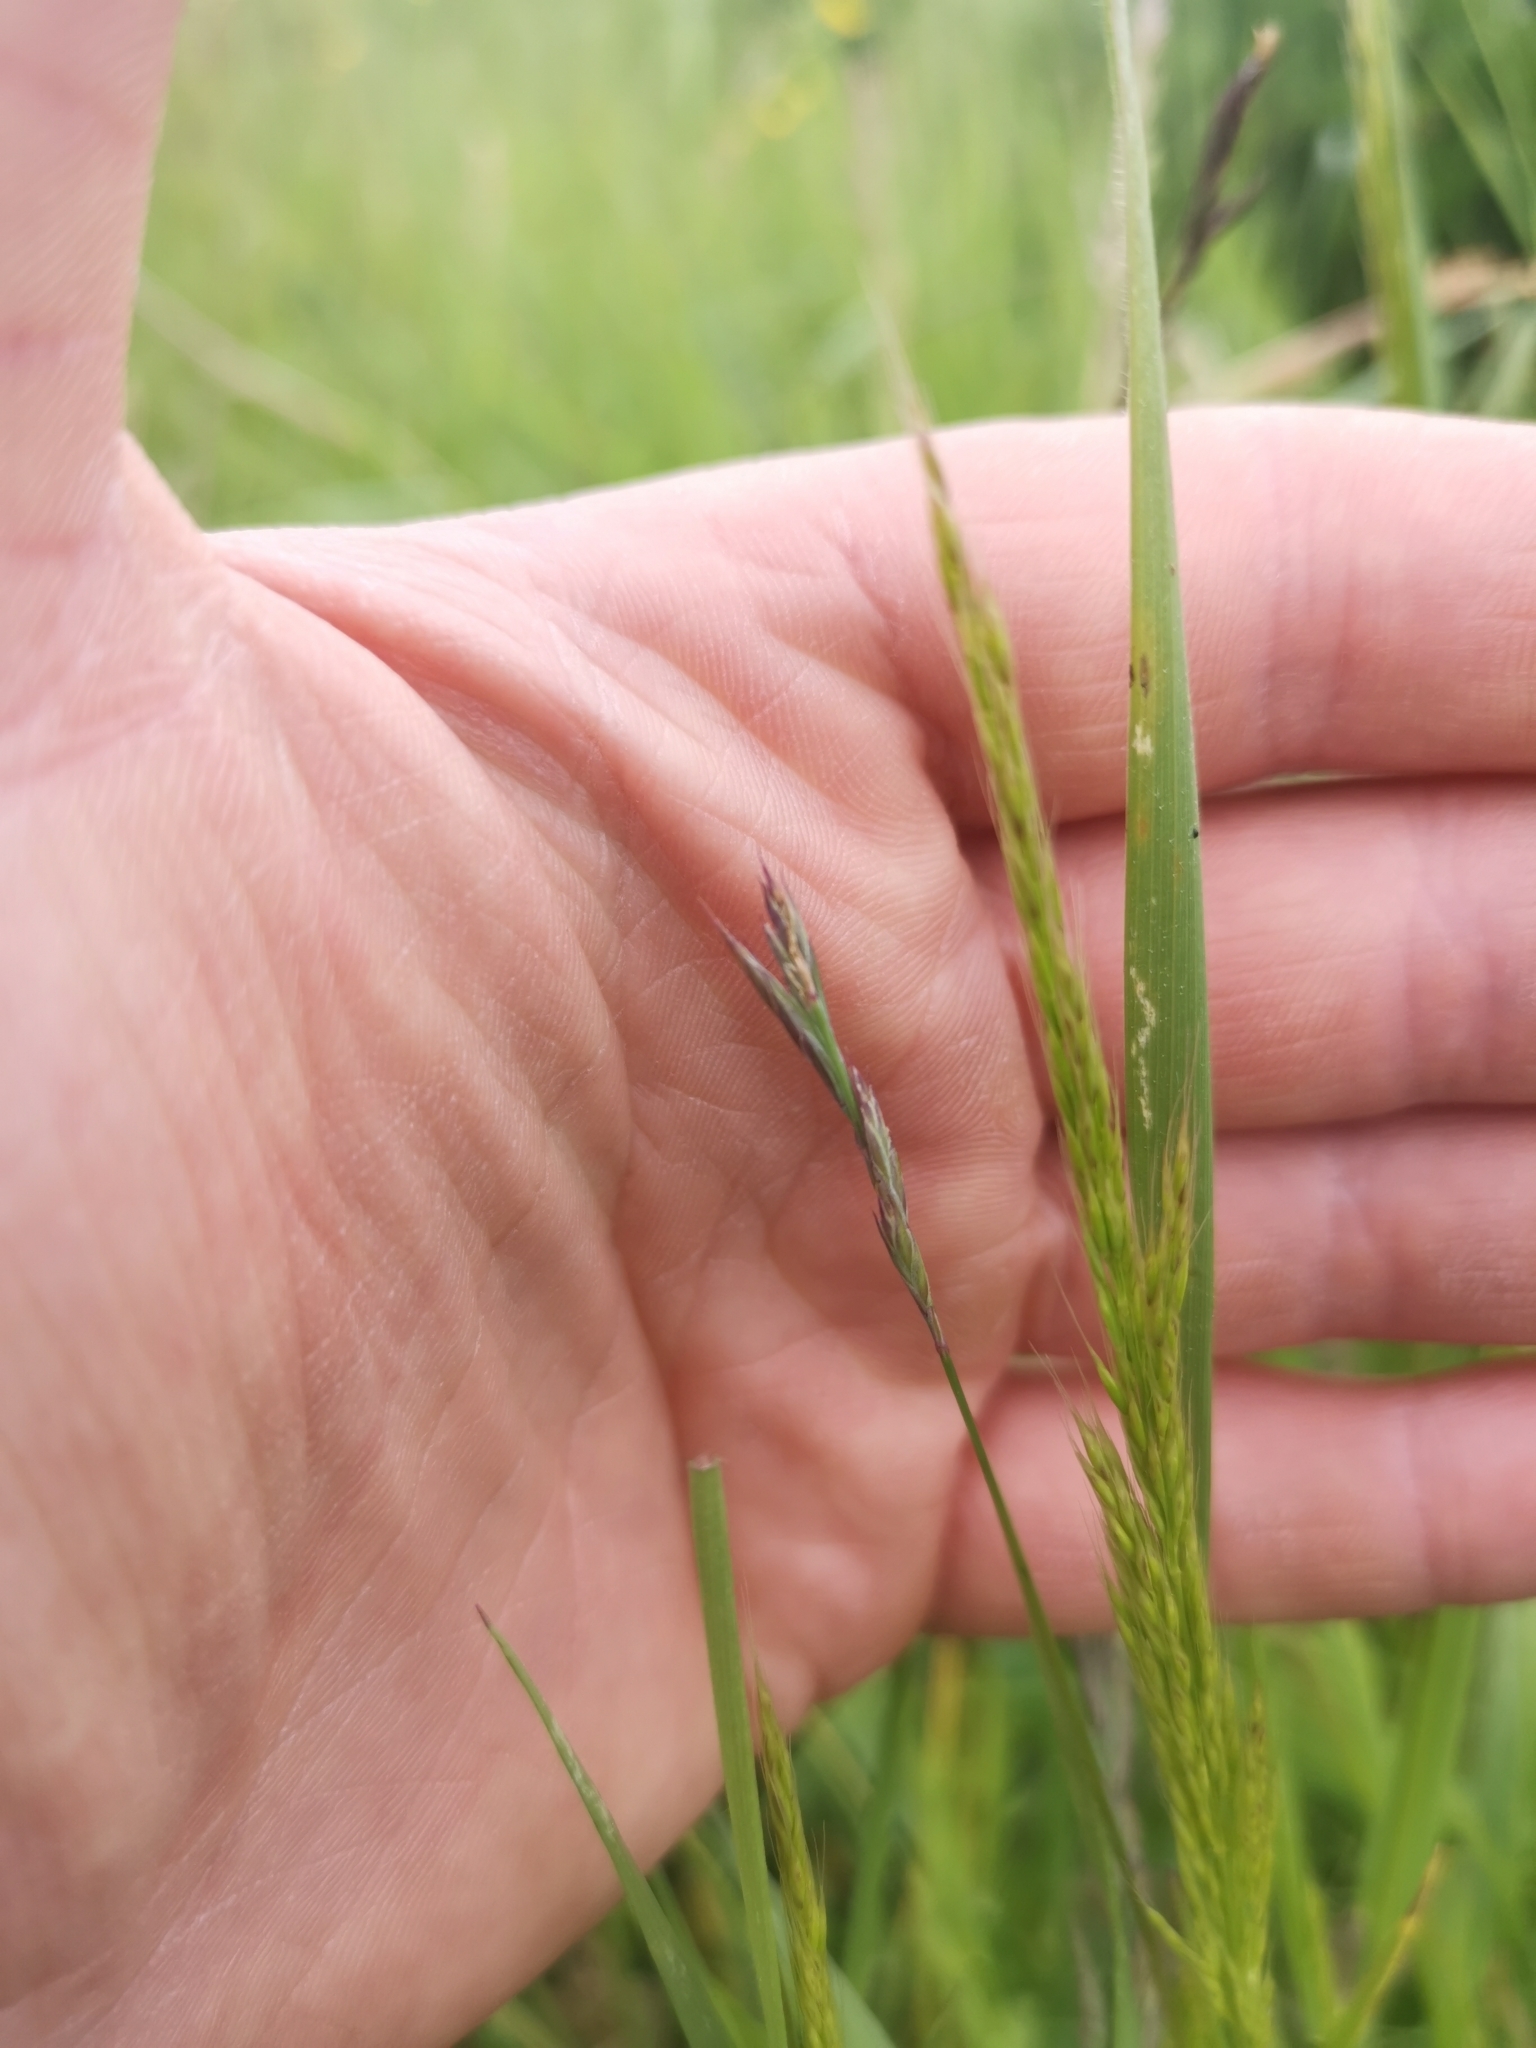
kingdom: Plantae
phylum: Tracheophyta
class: Liliopsida
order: Poales
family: Poaceae
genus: Trisetum
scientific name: Trisetum flavescens
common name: Yellow oat-grass
